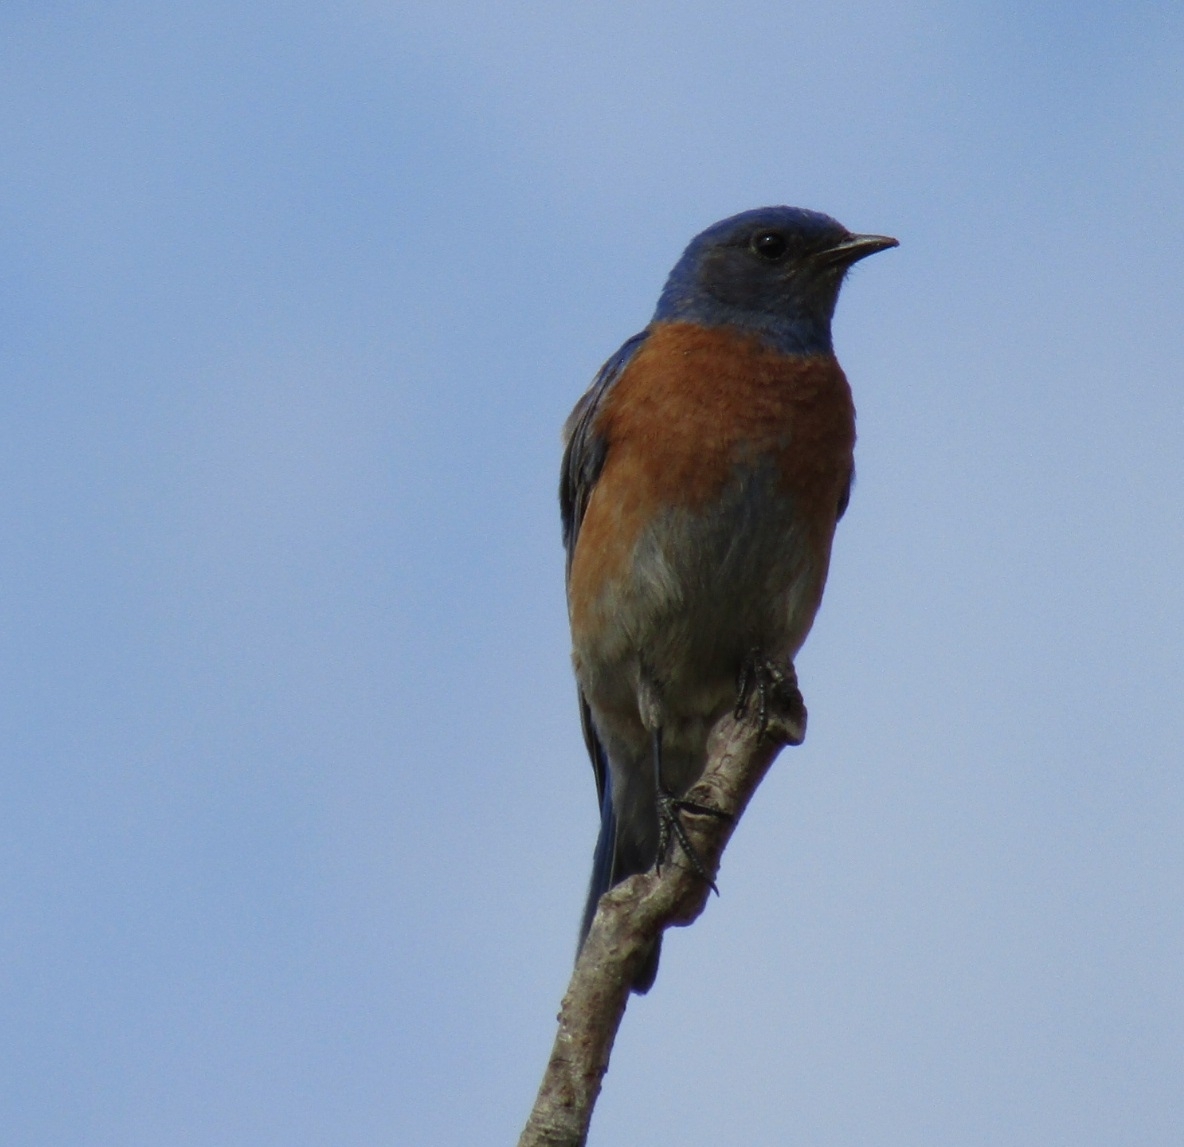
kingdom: Animalia
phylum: Chordata
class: Aves
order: Passeriformes
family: Turdidae
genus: Sialia
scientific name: Sialia mexicana
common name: Western bluebird
